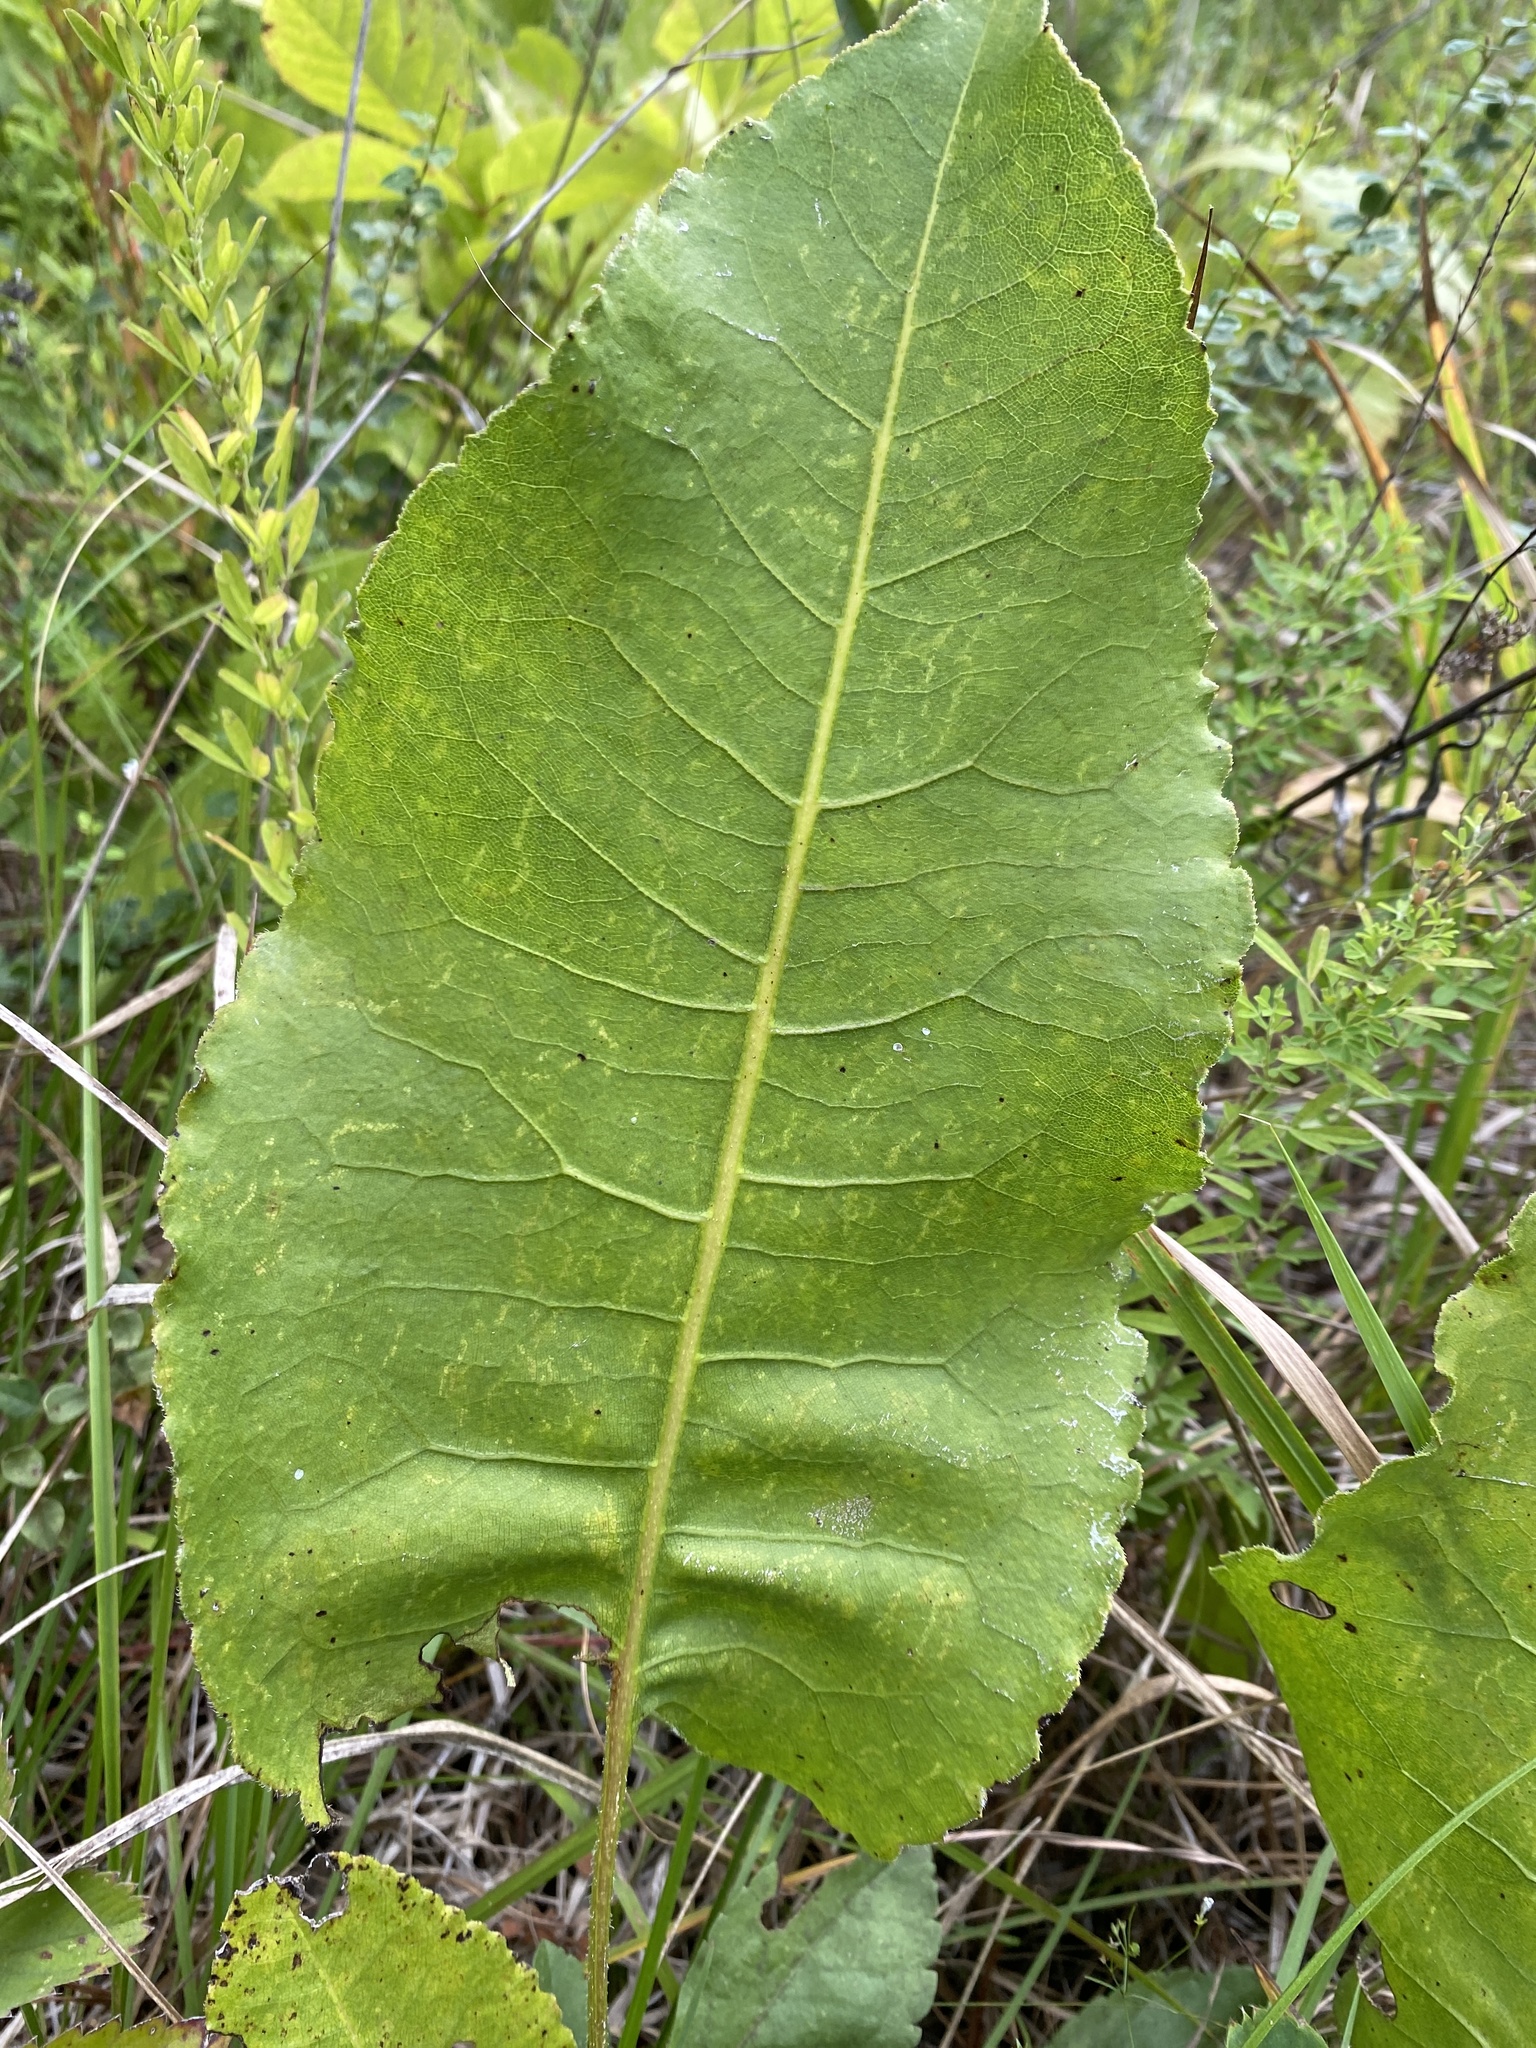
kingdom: Plantae
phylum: Tracheophyta
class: Magnoliopsida
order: Asterales
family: Asteraceae
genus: Silphium
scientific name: Silphium terebinthinaceum
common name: Basal-leaf rosinweed
